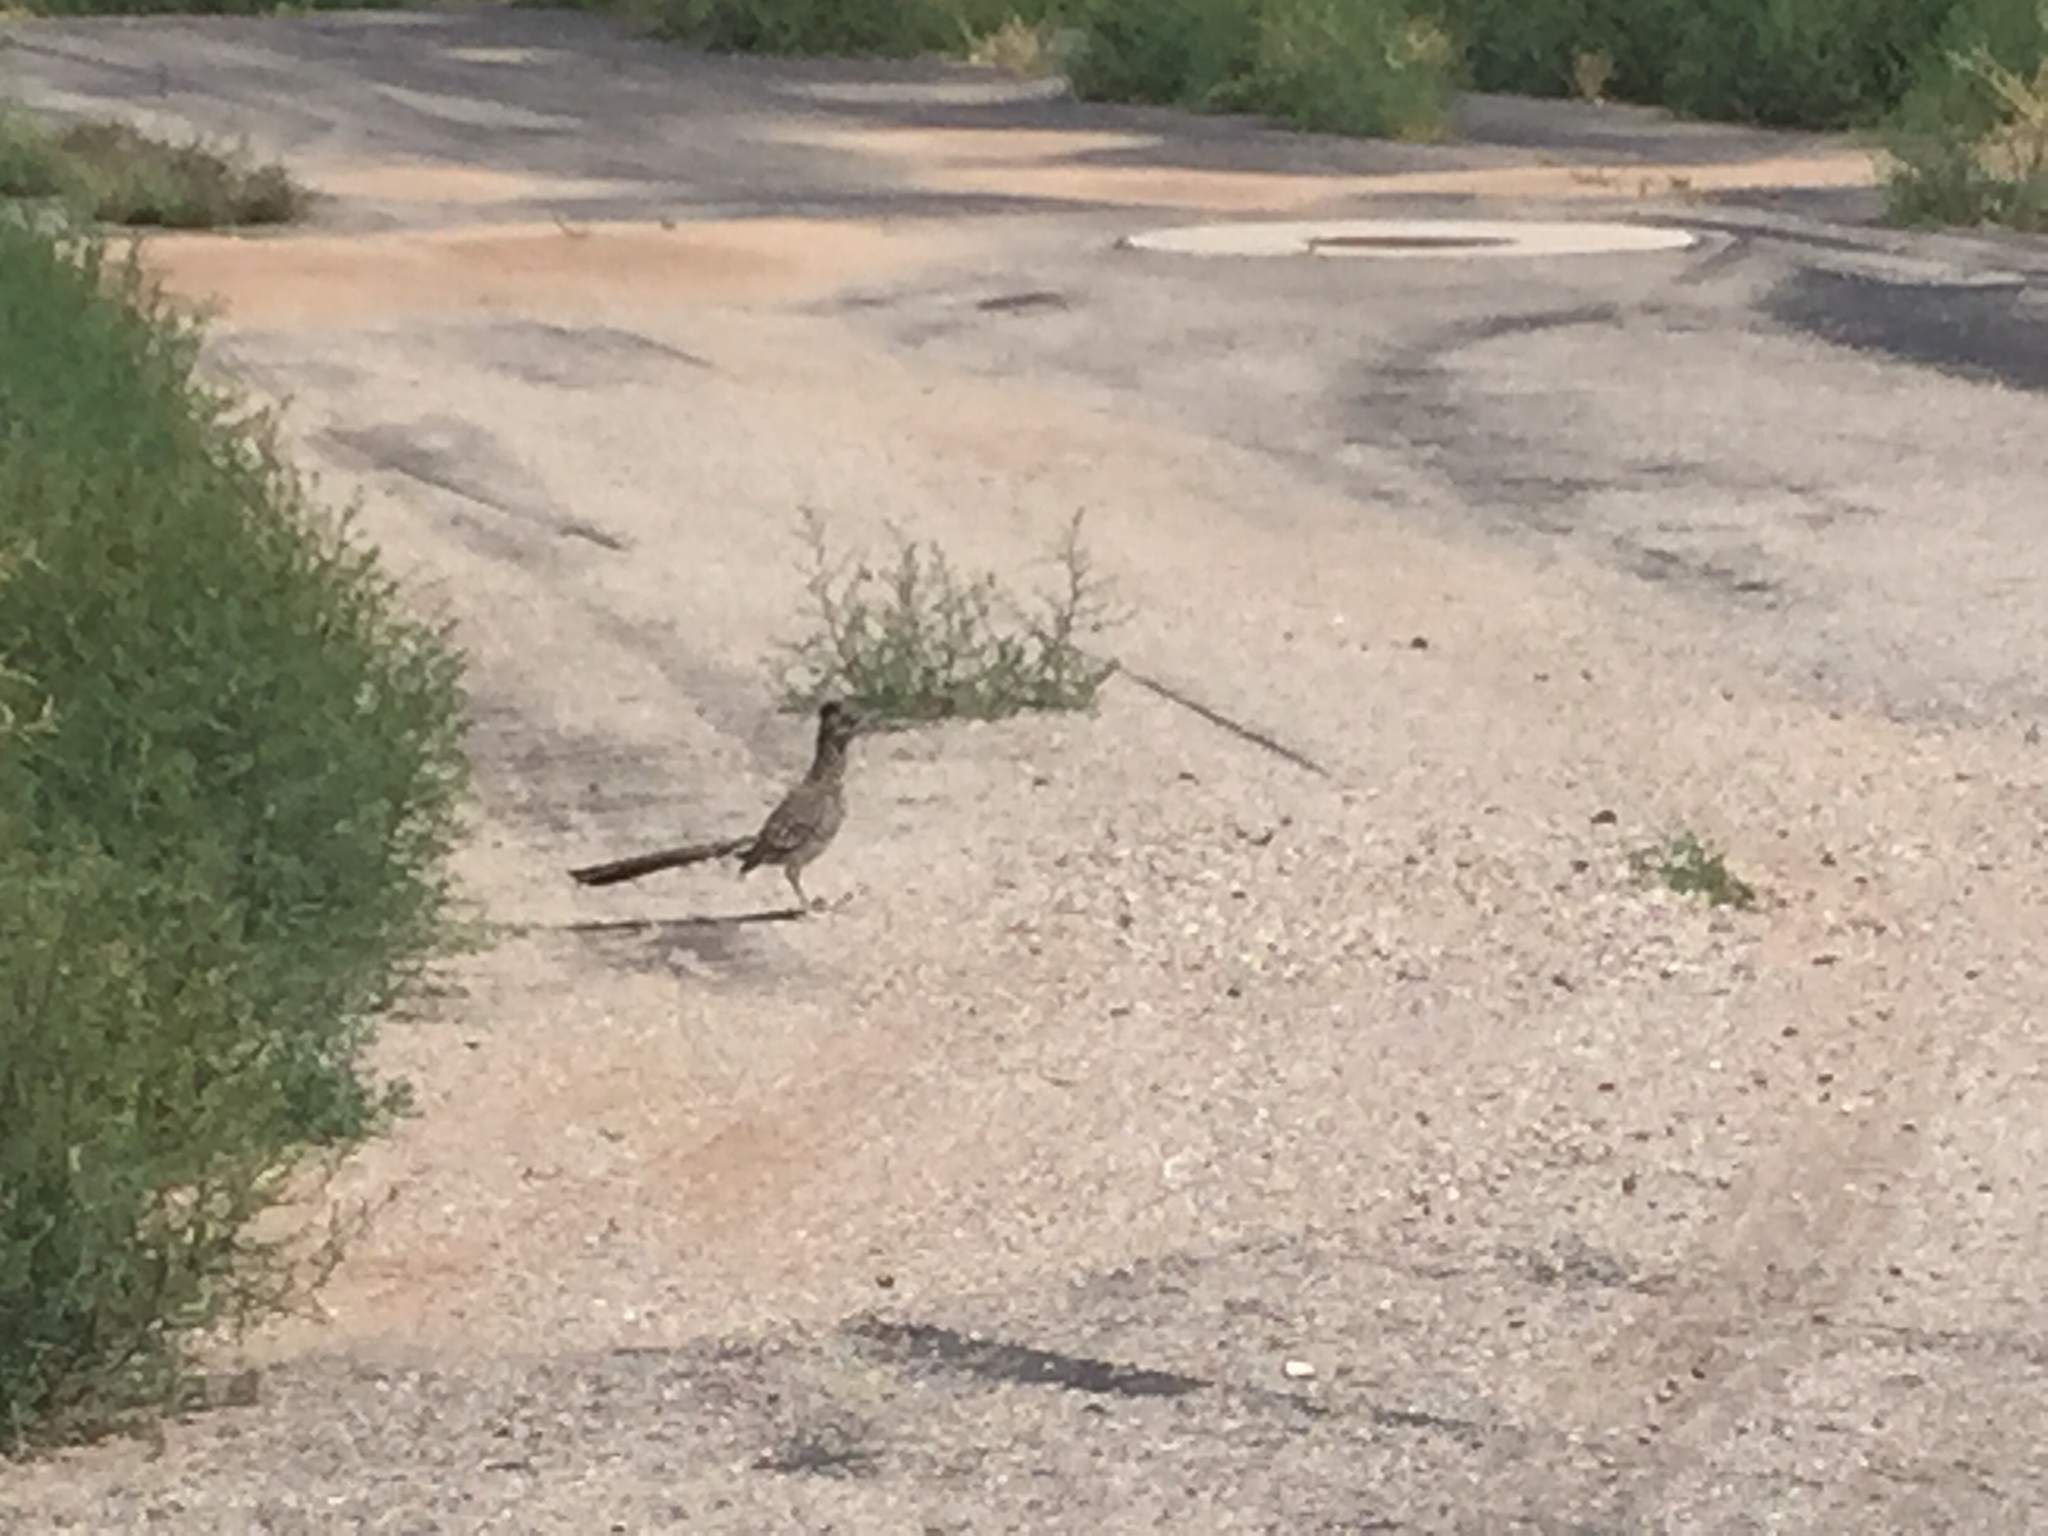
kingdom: Animalia
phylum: Chordata
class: Aves
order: Cuculiformes
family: Cuculidae
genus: Geococcyx
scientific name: Geococcyx californianus
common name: Greater roadrunner
